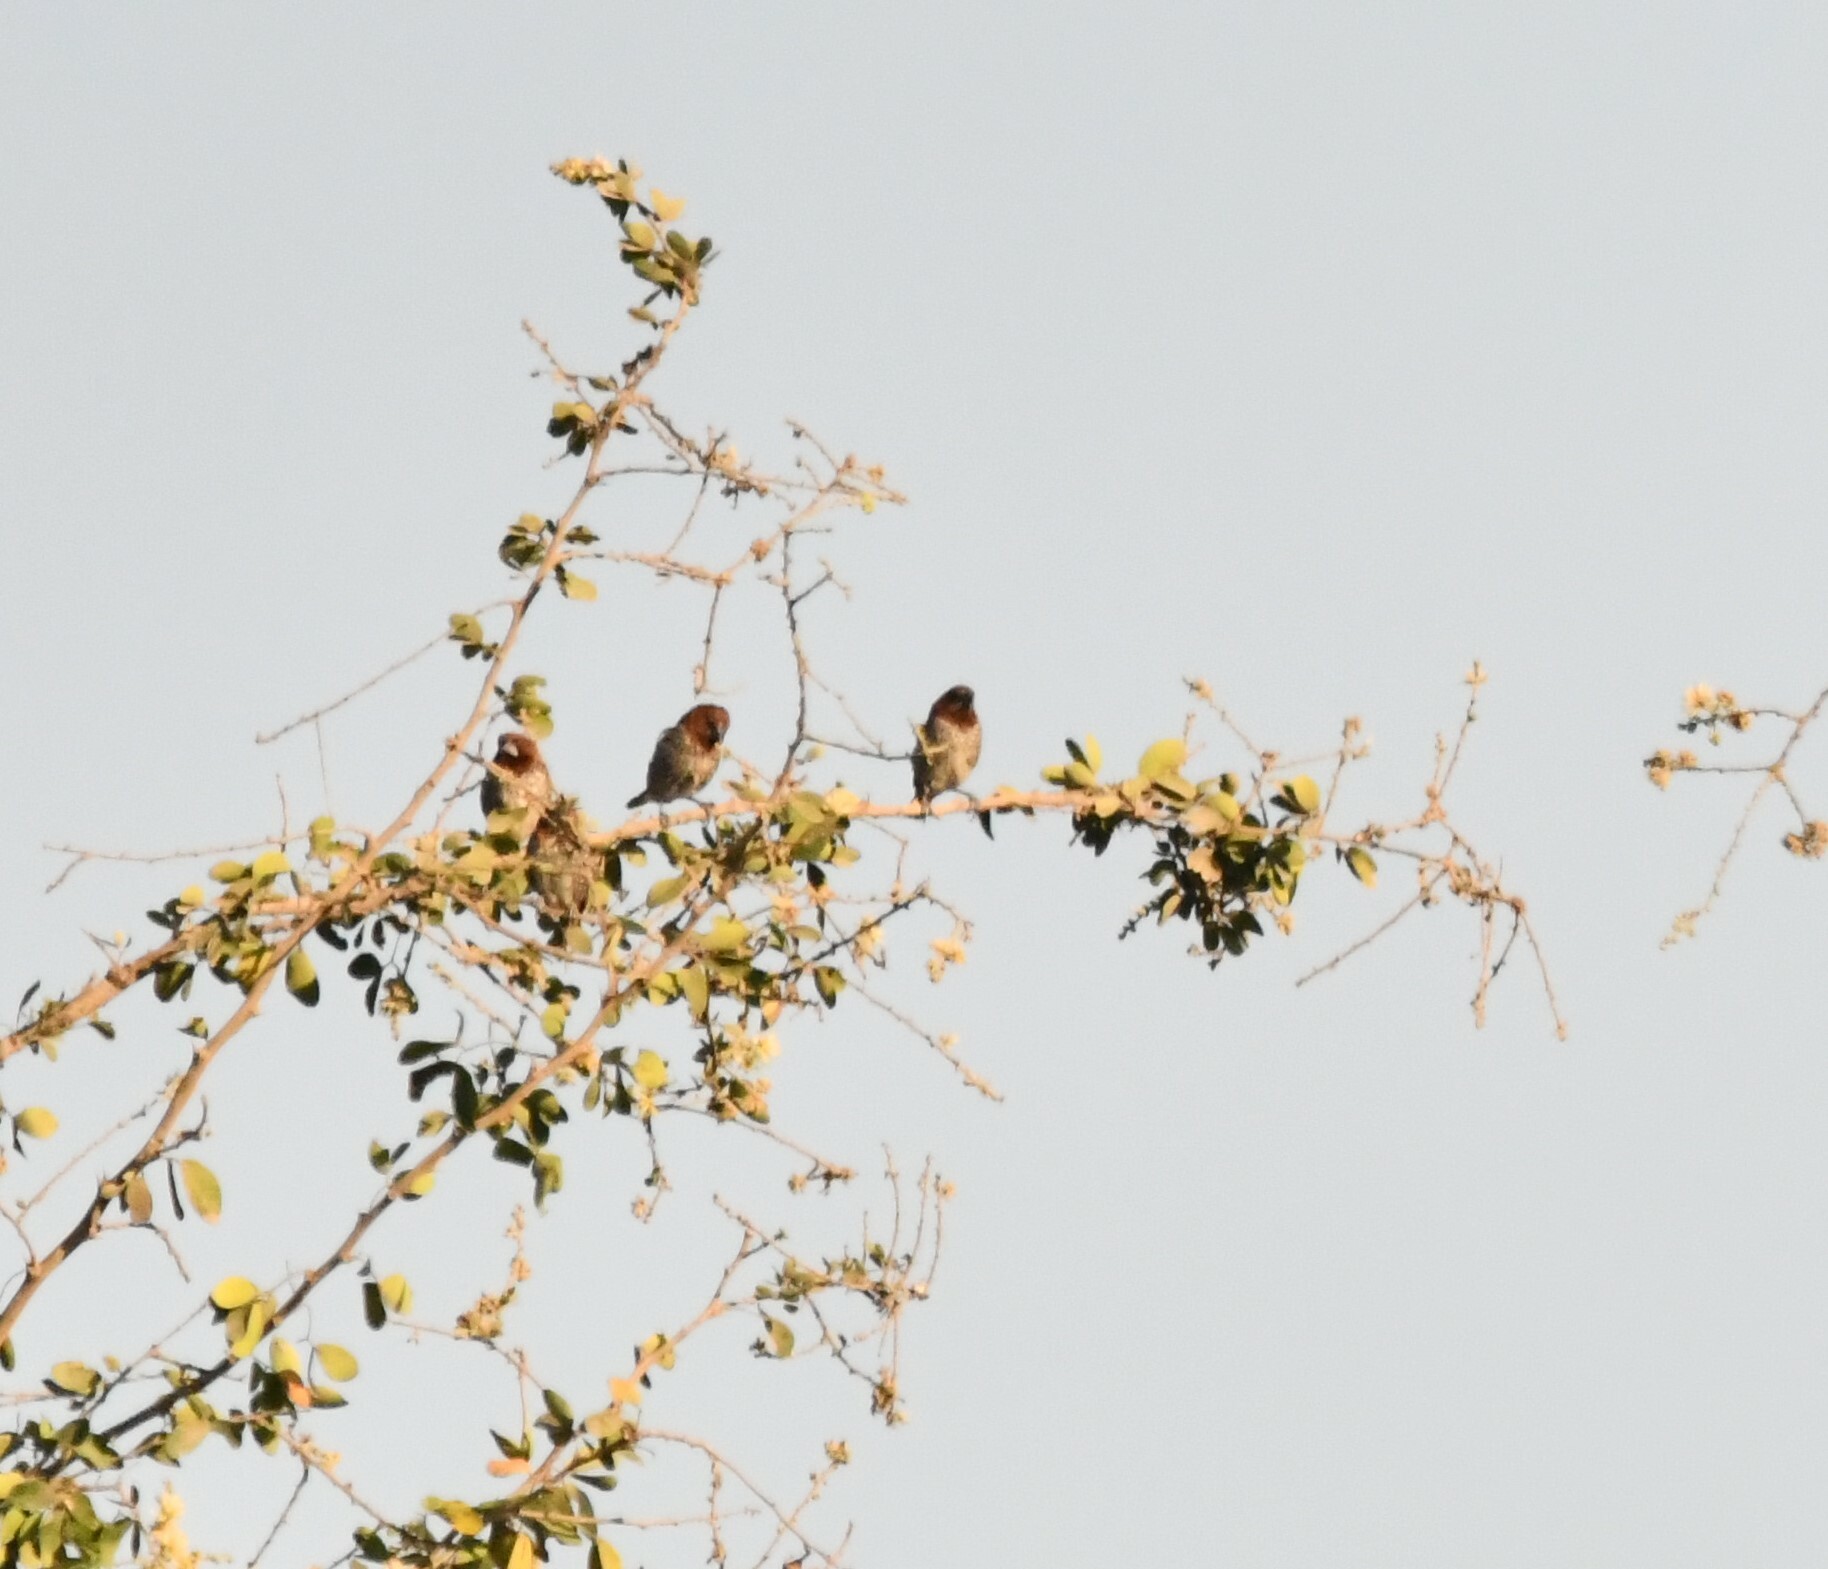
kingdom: Animalia
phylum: Chordata
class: Aves
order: Passeriformes
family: Estrildidae
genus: Lonchura
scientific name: Lonchura punctulata
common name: Scaly-breasted munia
